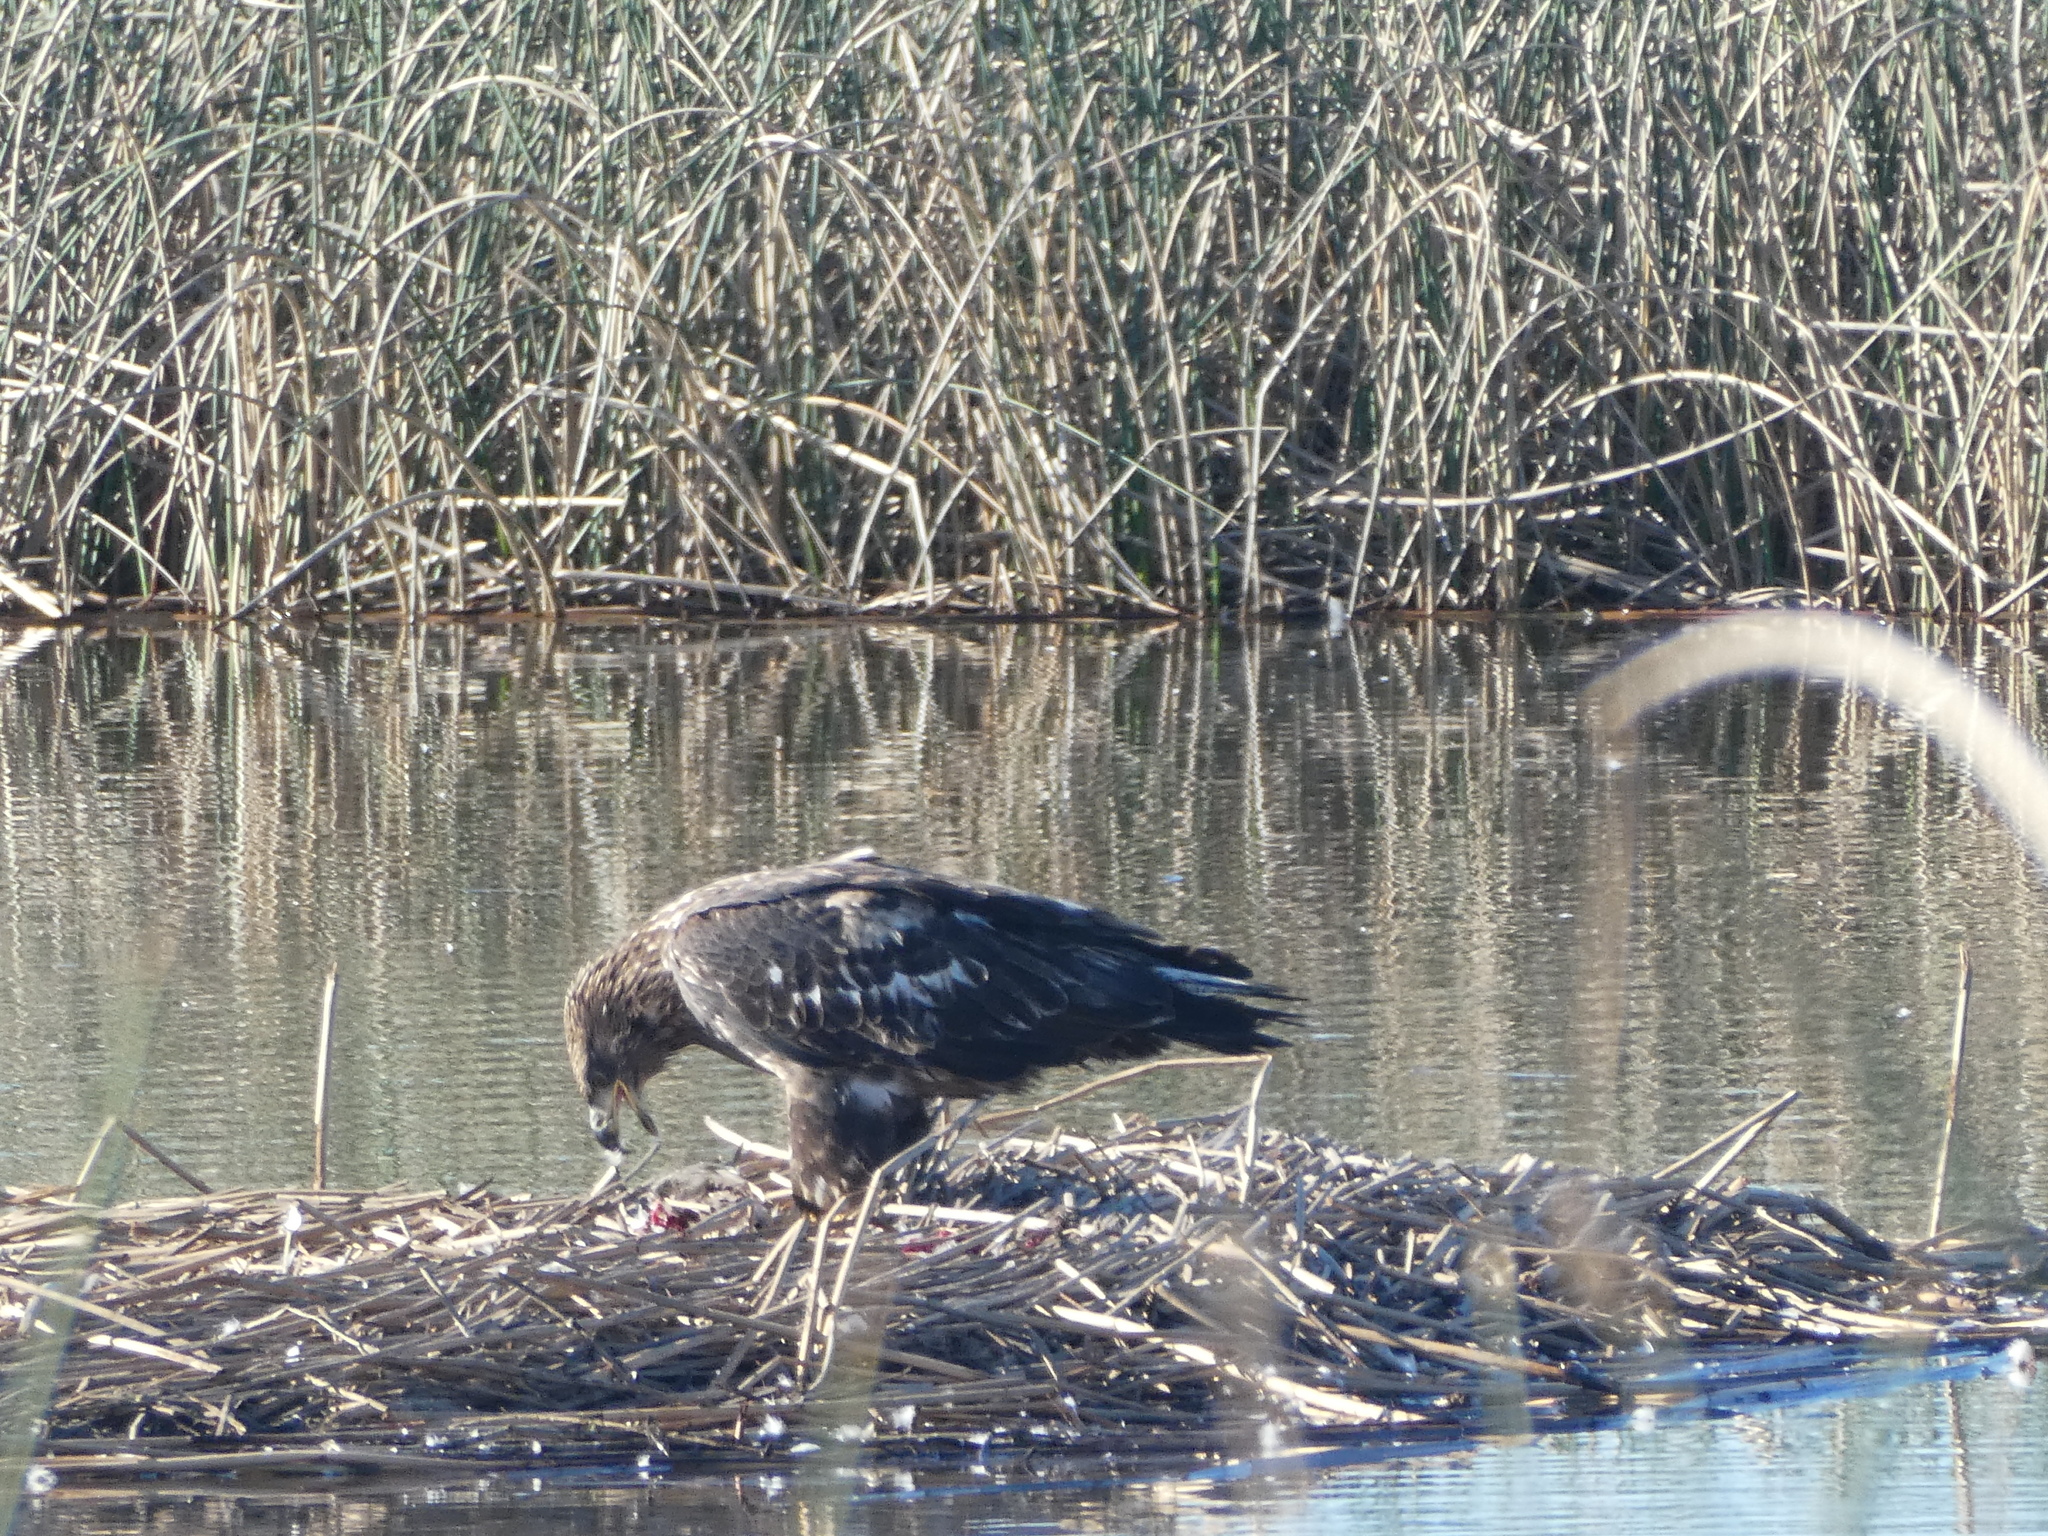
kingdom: Animalia
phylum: Chordata
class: Aves
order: Accipitriformes
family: Accipitridae
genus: Haliaeetus
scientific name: Haliaeetus leucocephalus
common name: Bald eagle
